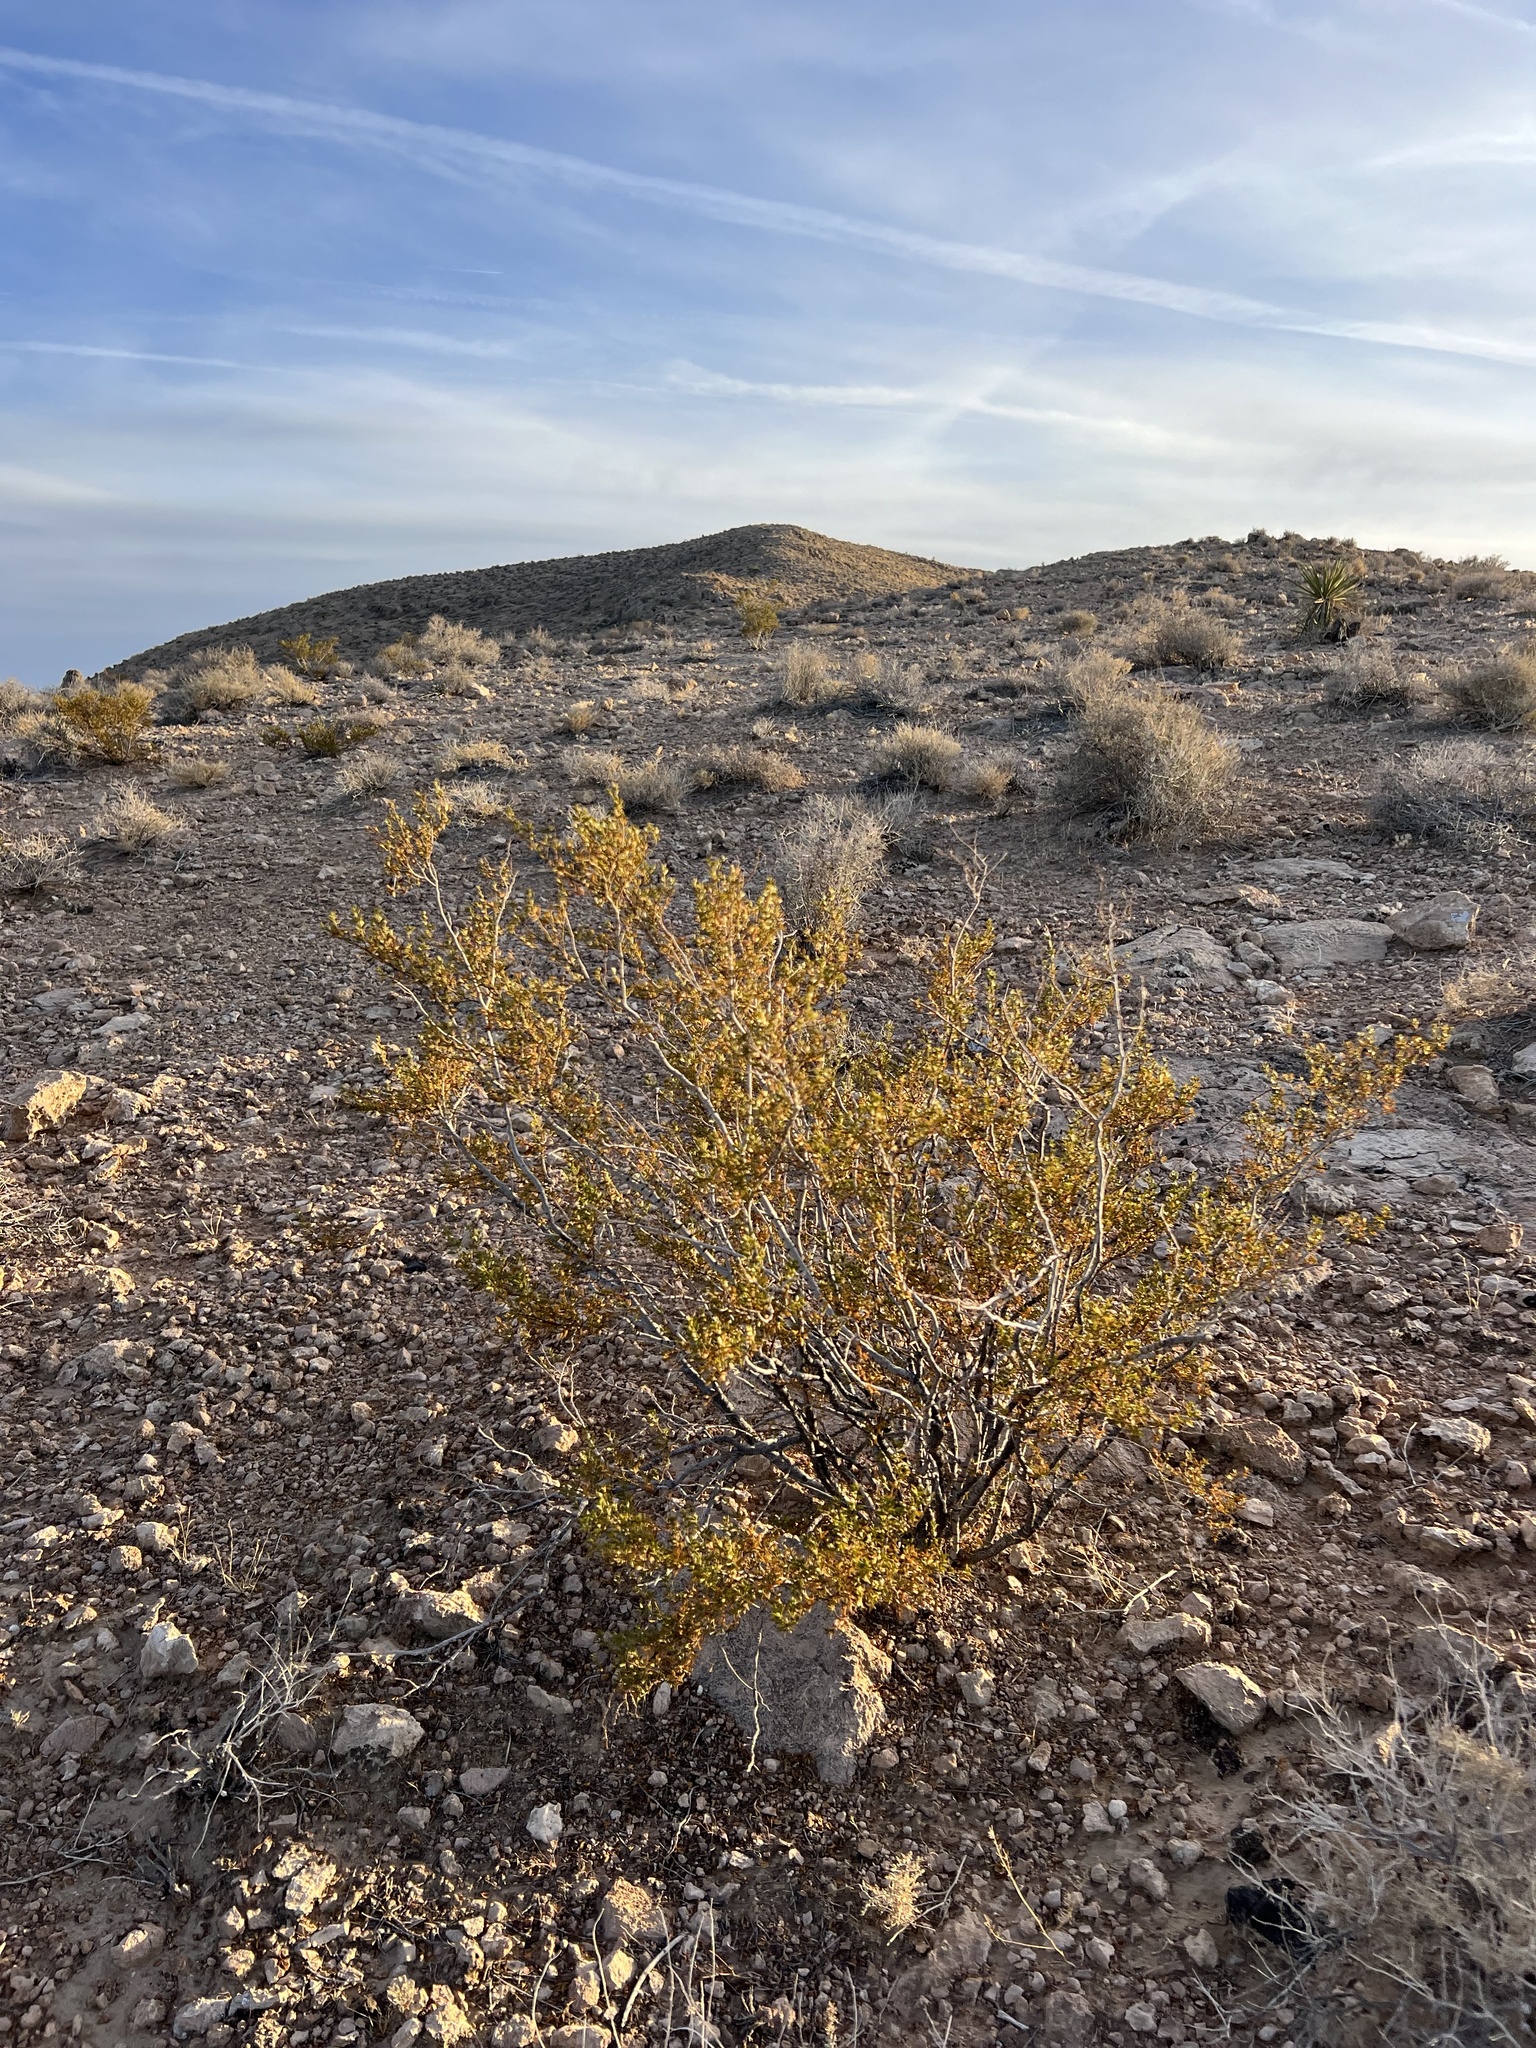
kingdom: Plantae
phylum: Tracheophyta
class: Magnoliopsida
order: Zygophyllales
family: Zygophyllaceae
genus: Larrea
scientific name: Larrea tridentata
